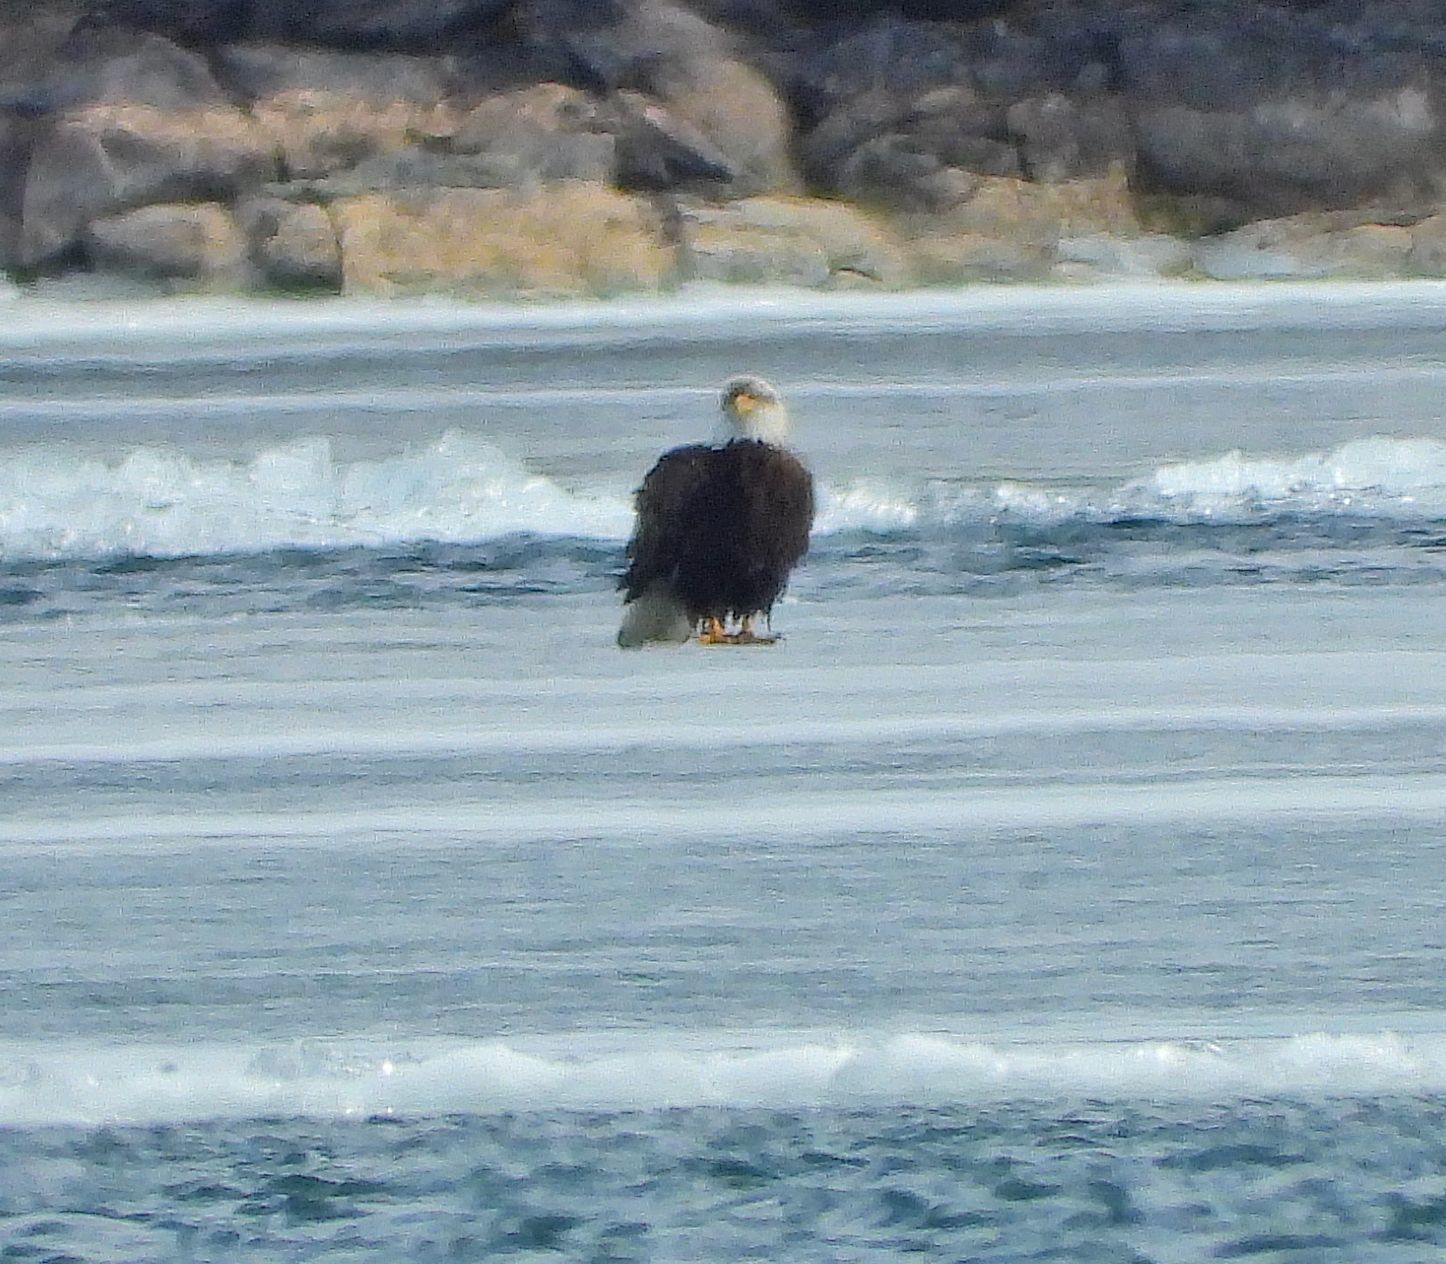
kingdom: Animalia
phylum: Chordata
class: Aves
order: Accipitriformes
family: Accipitridae
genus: Haliaeetus
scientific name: Haliaeetus leucocephalus
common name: Bald eagle
